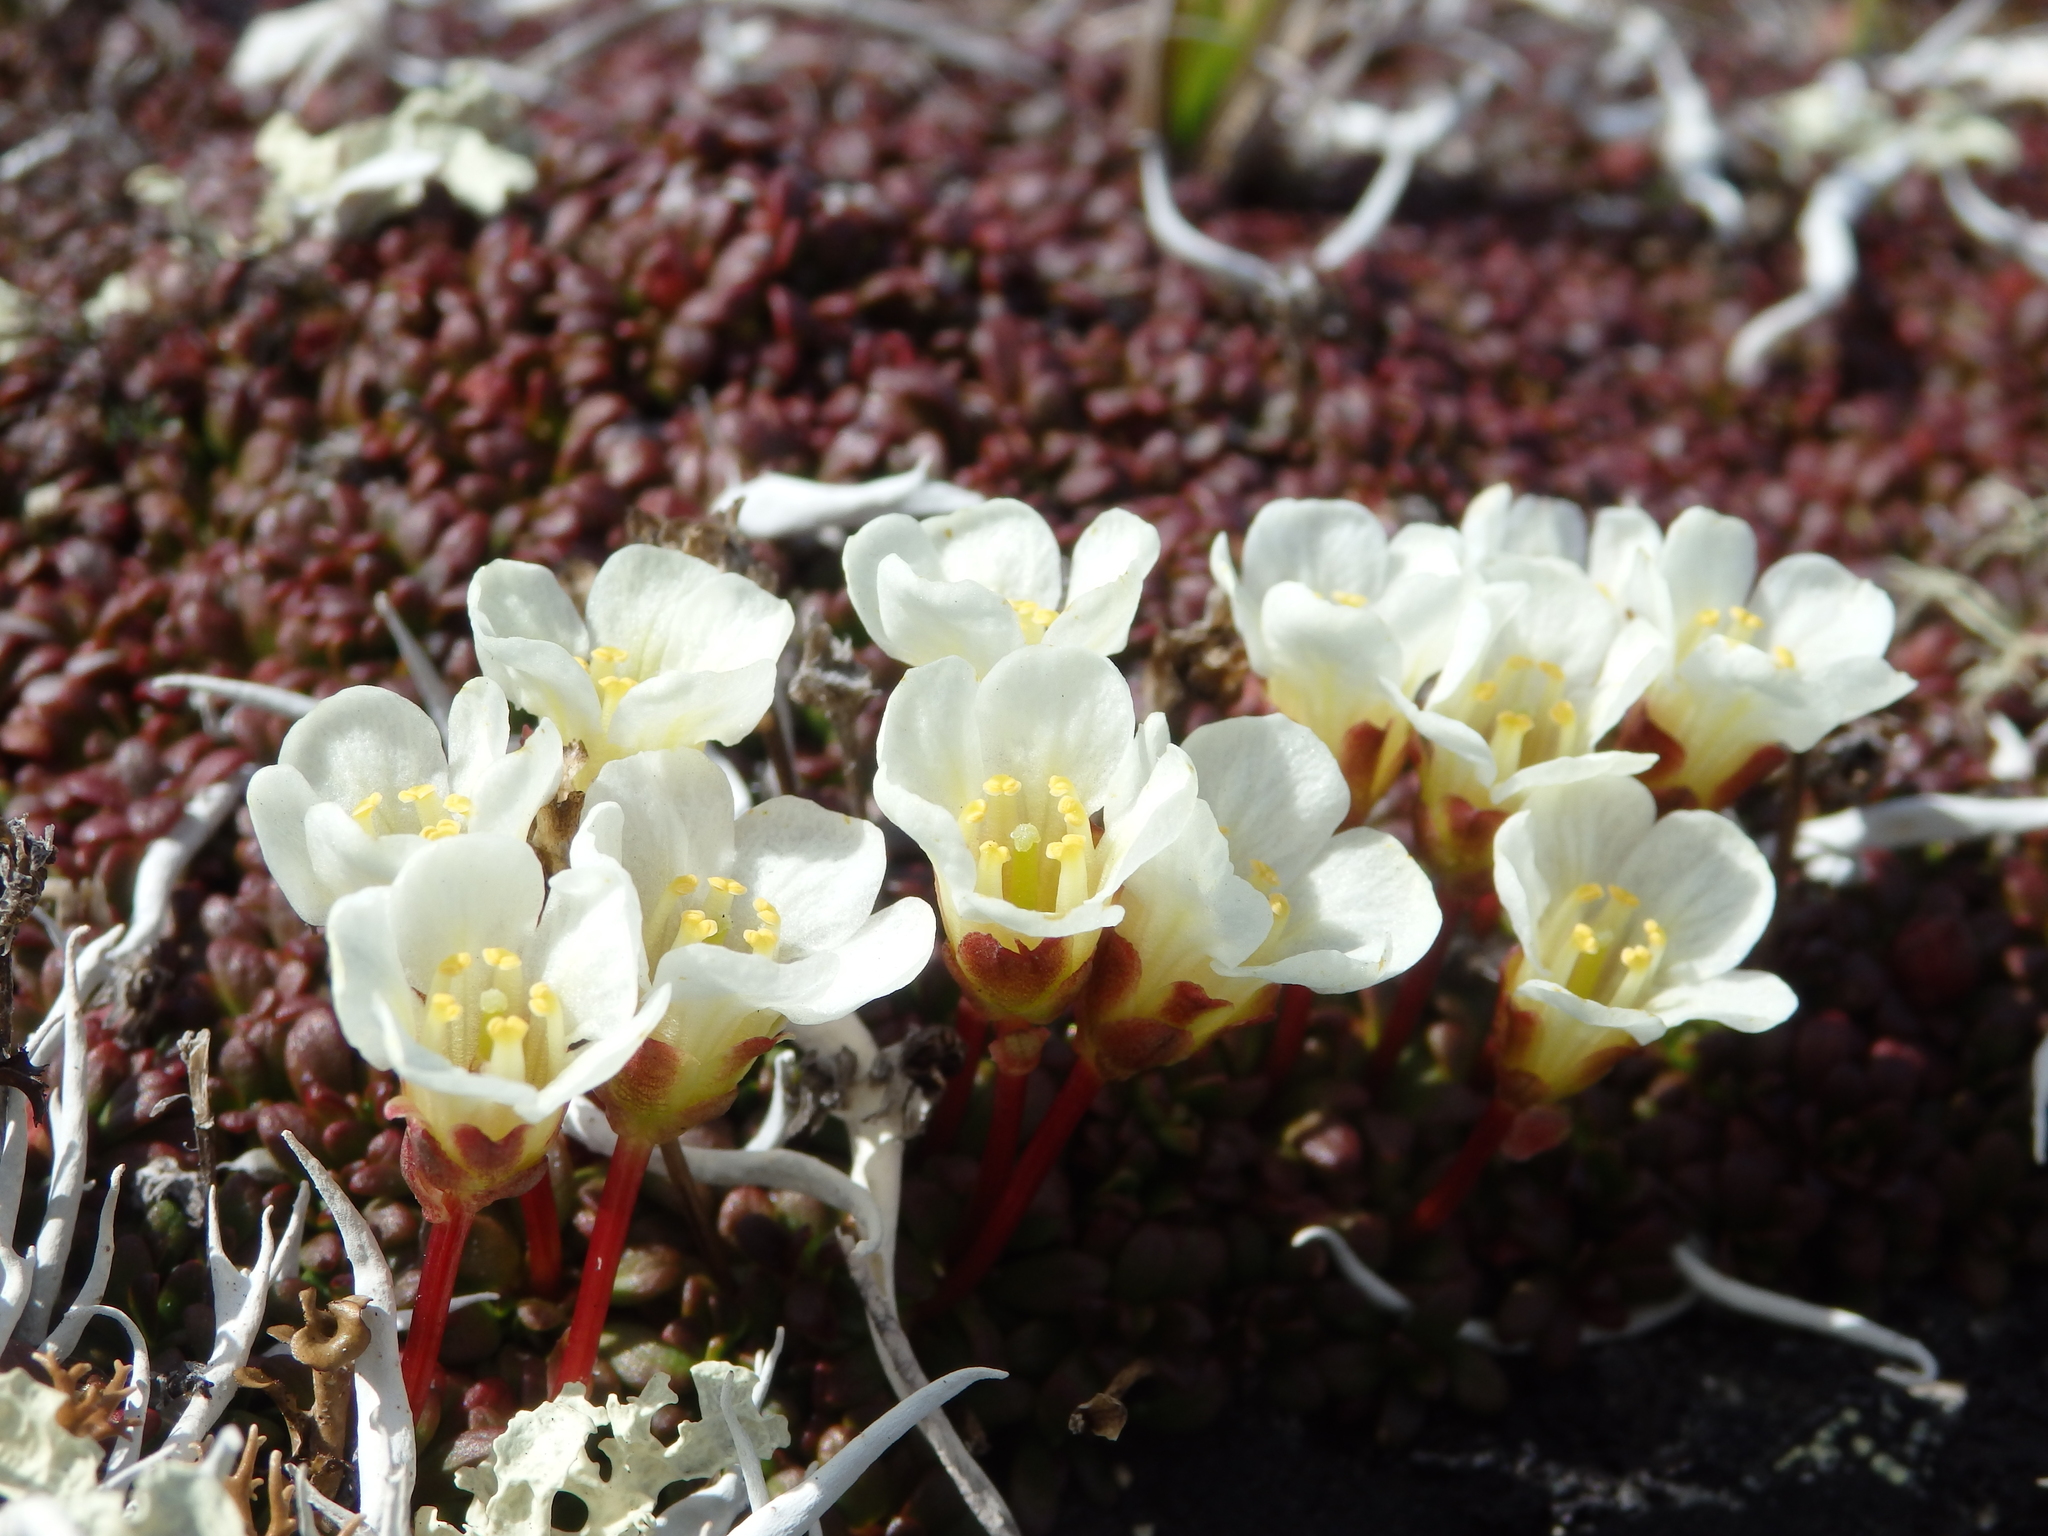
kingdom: Plantae
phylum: Tracheophyta
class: Magnoliopsida
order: Ericales
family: Diapensiaceae
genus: Diapensia
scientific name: Diapensia obovata
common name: Alaska diapensia
